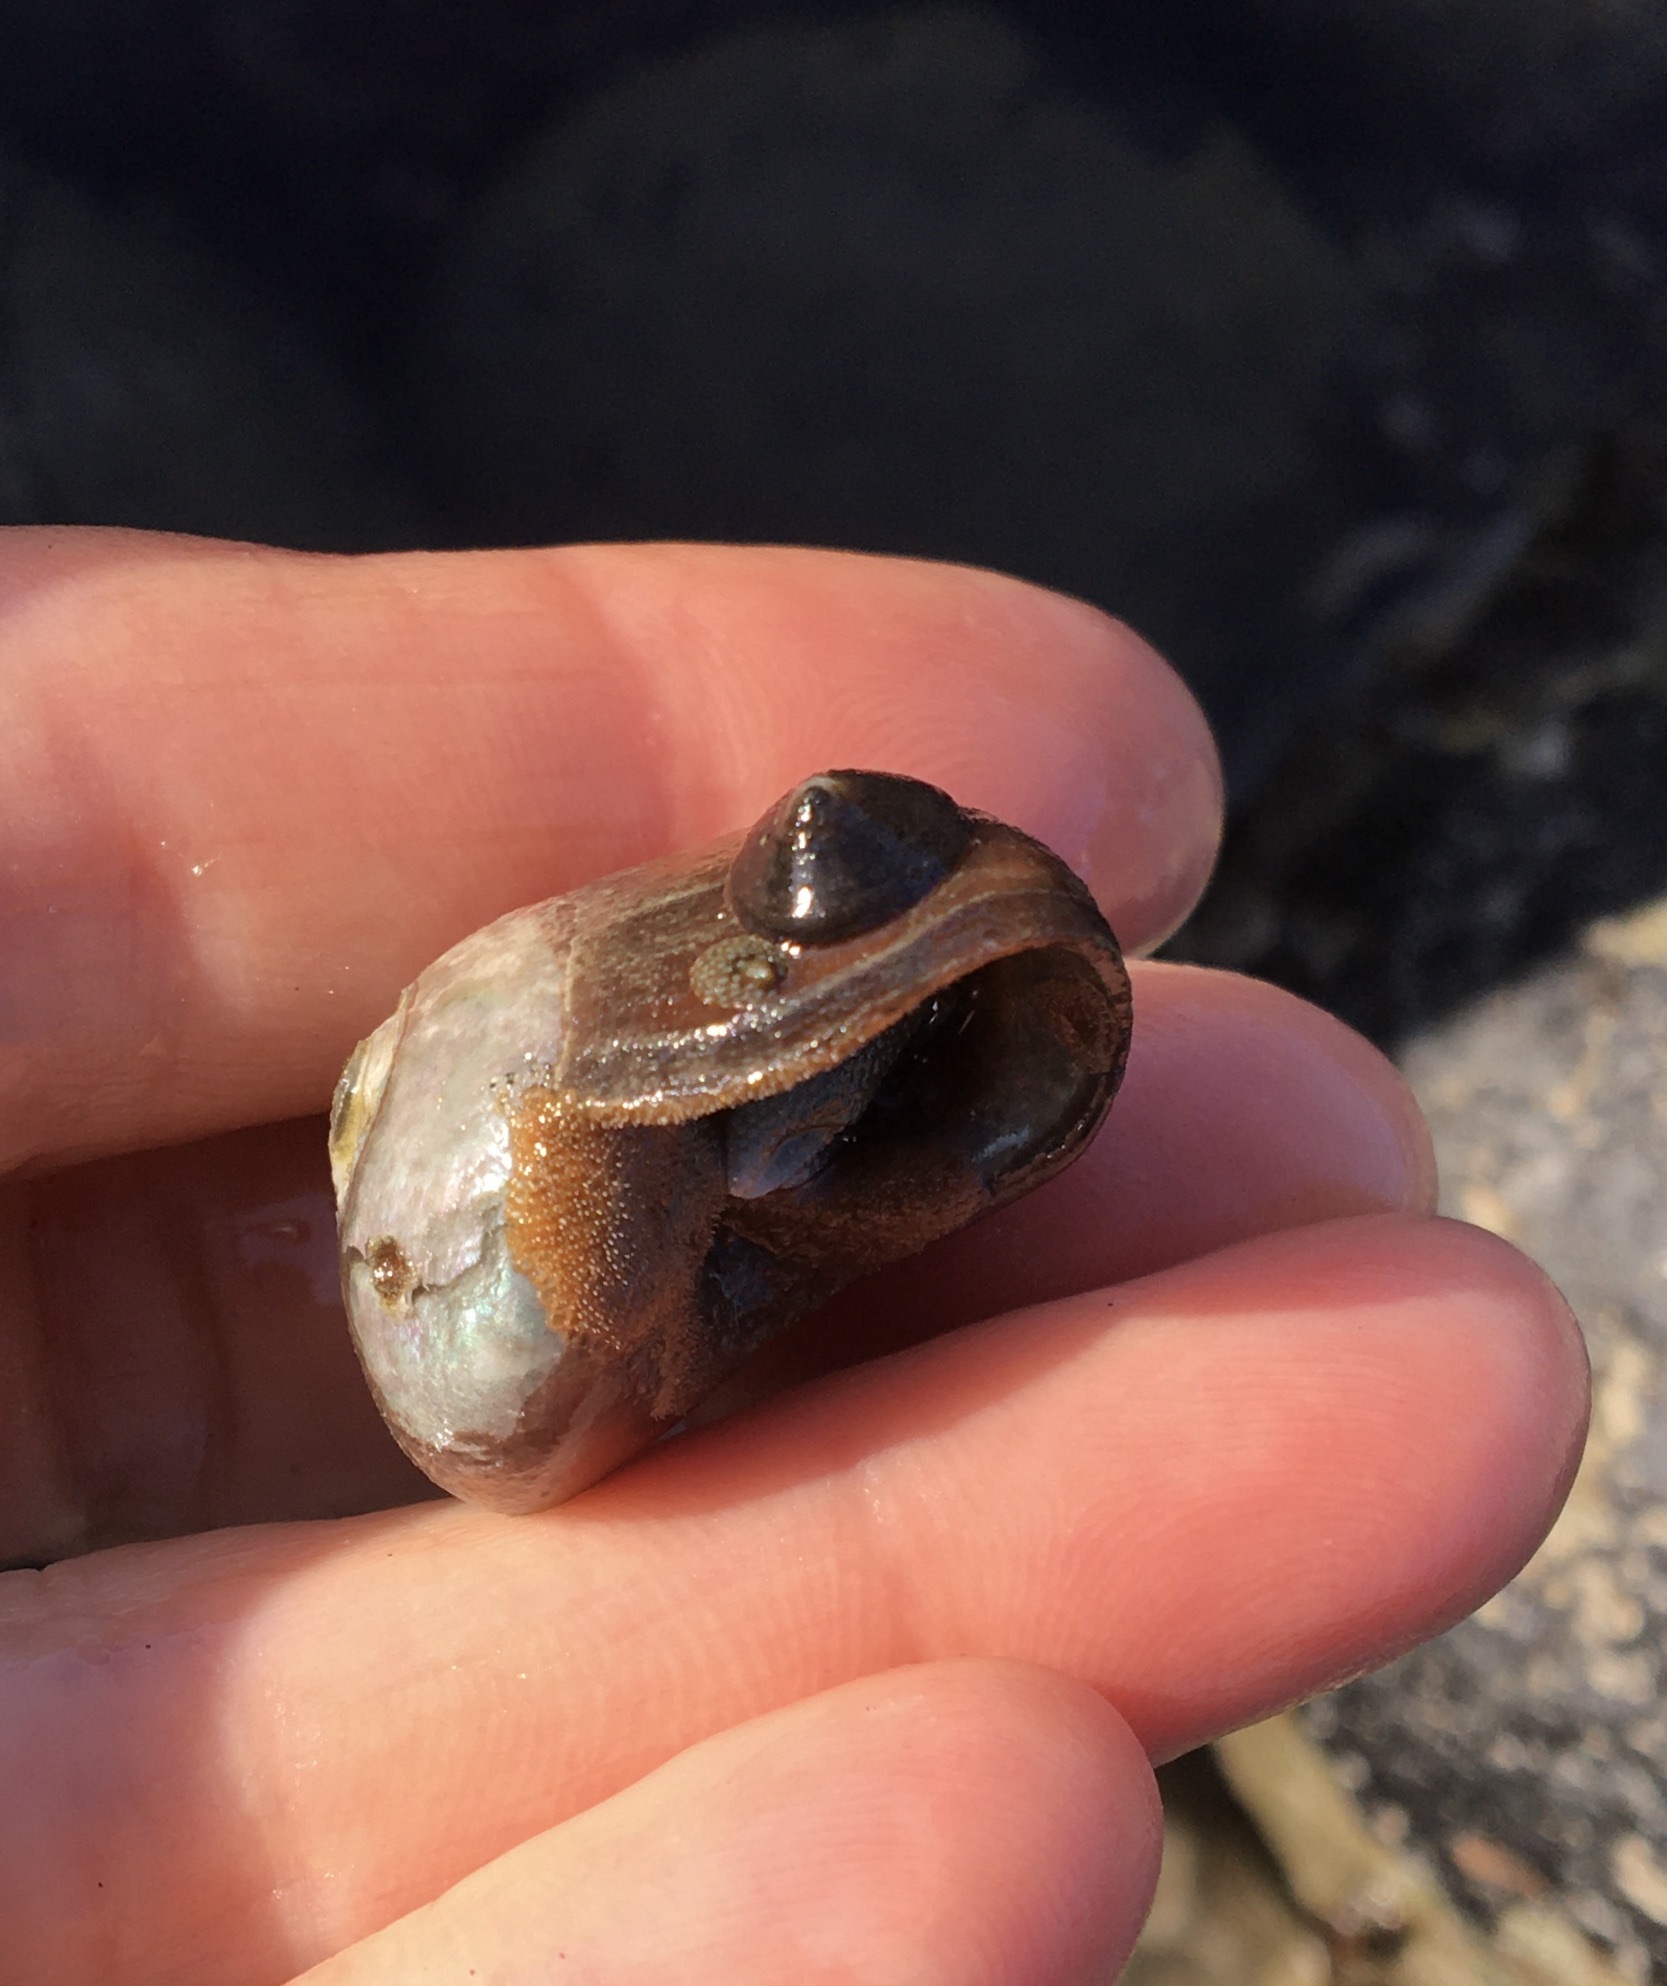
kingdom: Animalia
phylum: Mollusca
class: Gastropoda
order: Trochida
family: Tegulidae
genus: Norrisia
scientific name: Norrisia norrisii
